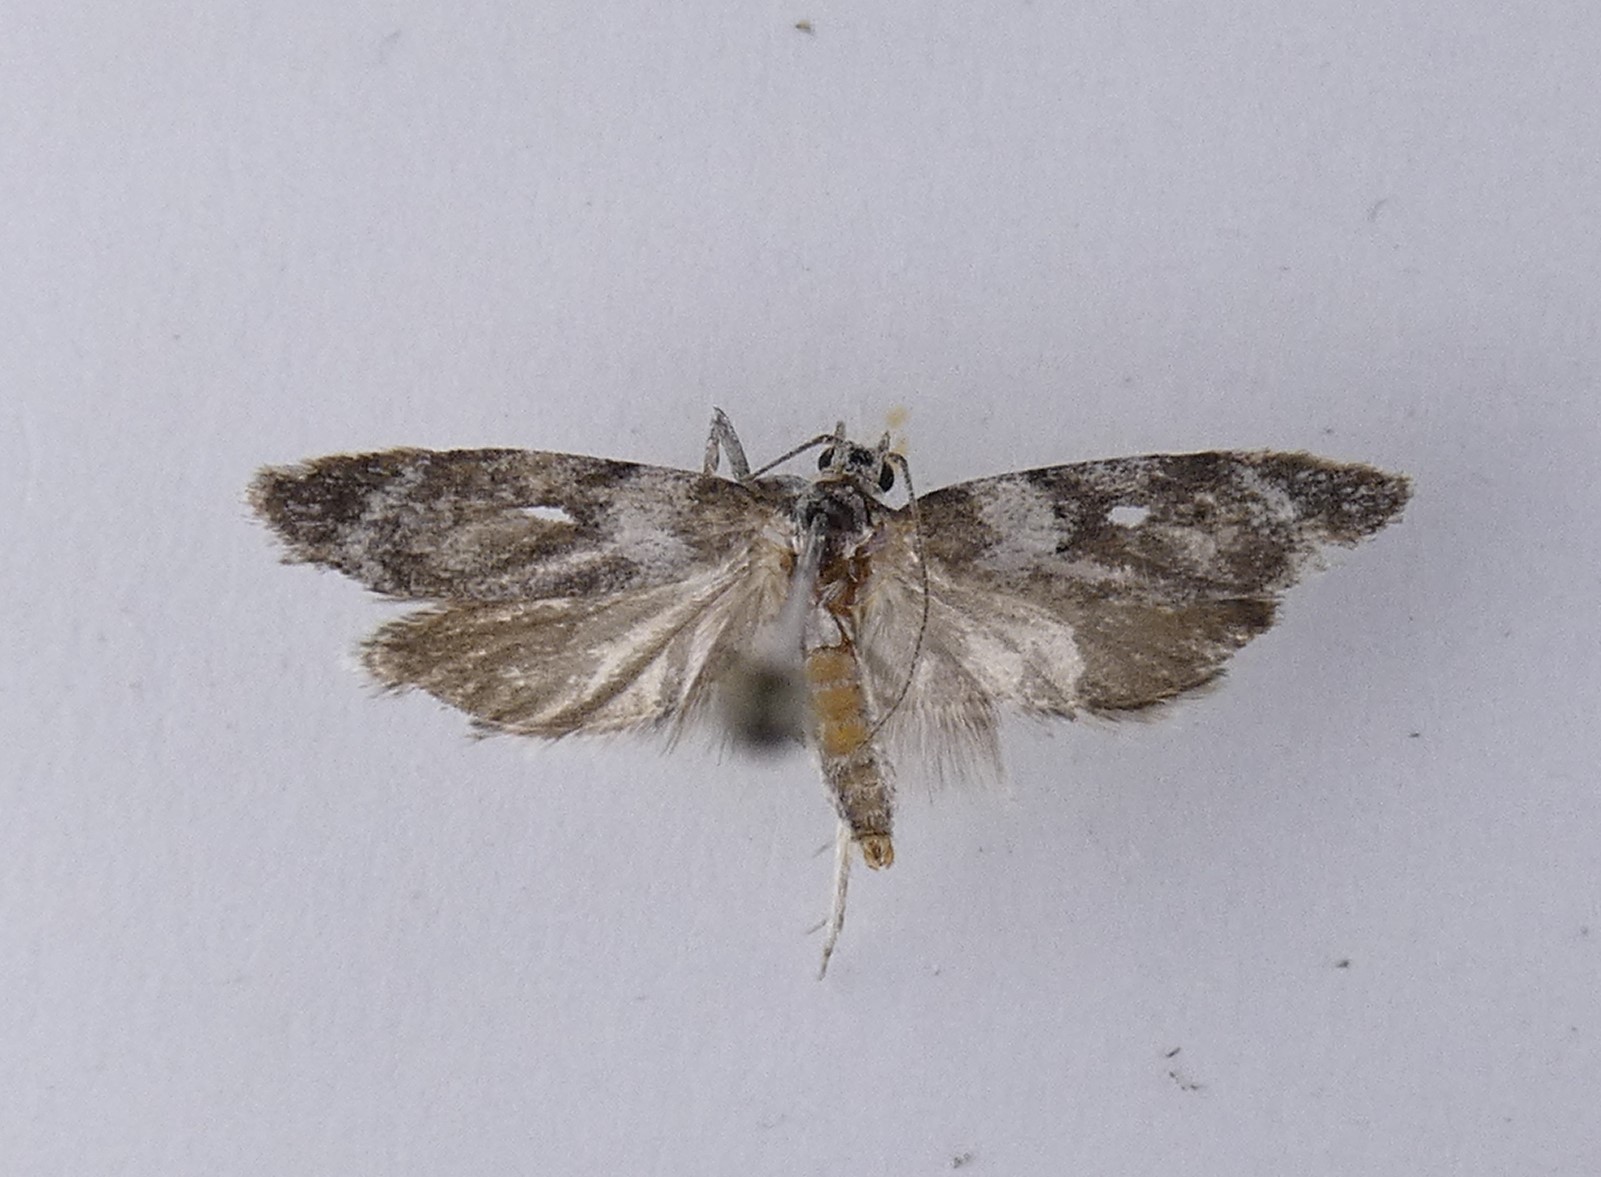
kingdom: Animalia
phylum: Arthropoda
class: Insecta
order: Lepidoptera
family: Oecophoridae
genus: Izatha
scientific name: Izatha convulsella
